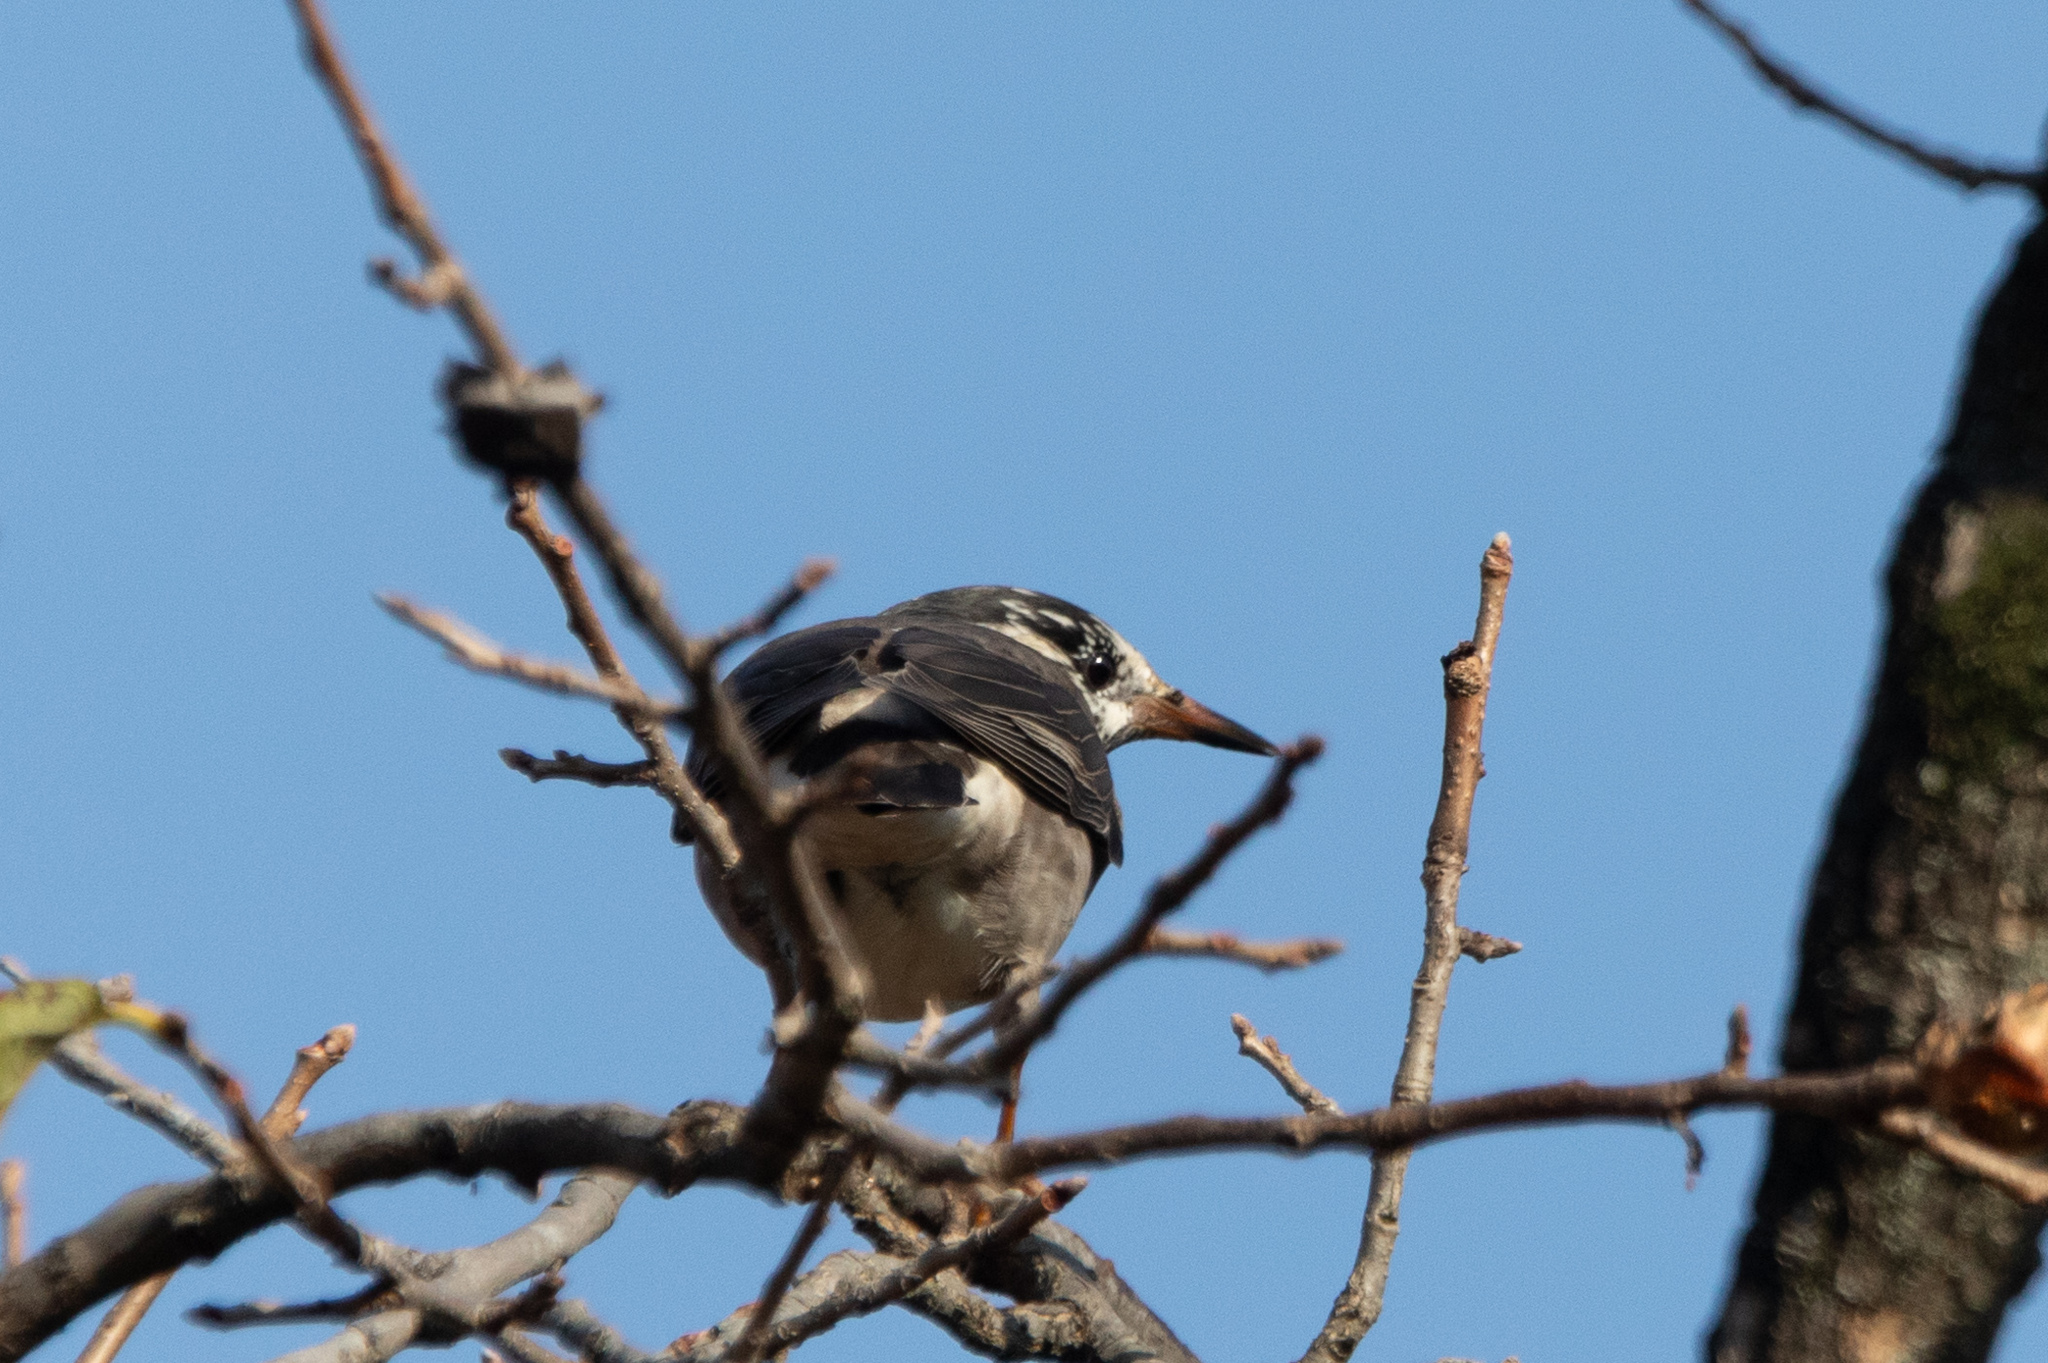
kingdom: Animalia
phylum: Chordata
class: Aves
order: Passeriformes
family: Sturnidae
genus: Spodiopsar
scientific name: Spodiopsar cineraceus
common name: White-cheeked starling
